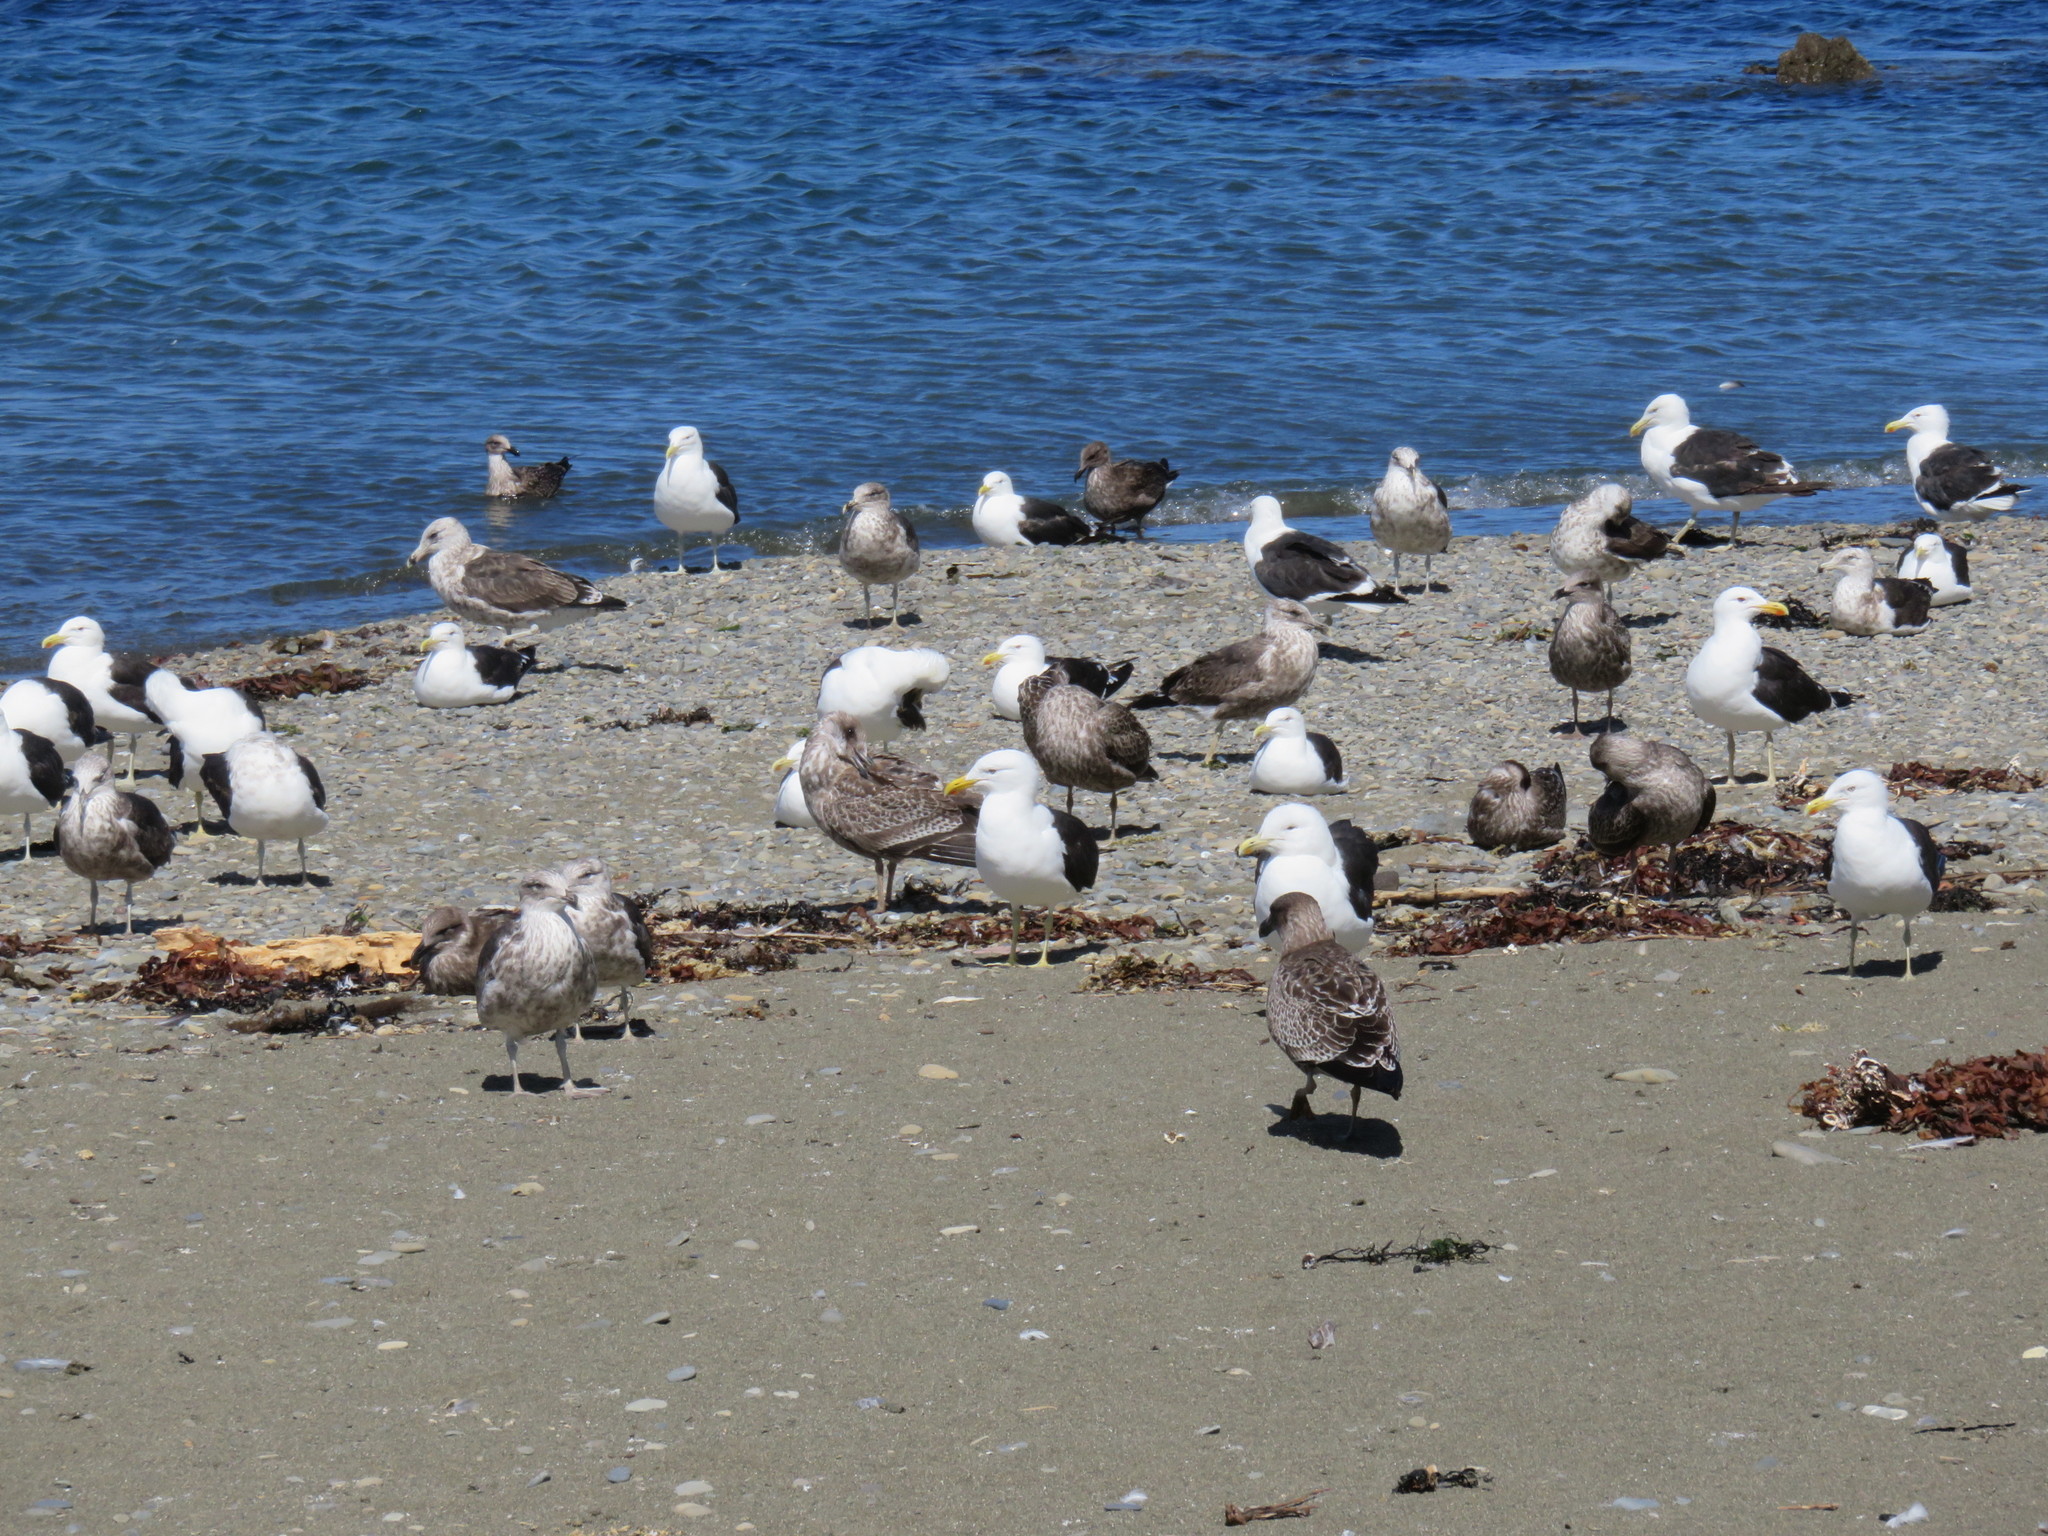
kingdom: Animalia
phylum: Chordata
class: Aves
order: Charadriiformes
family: Laridae
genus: Larus
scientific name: Larus dominicanus
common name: Kelp gull
